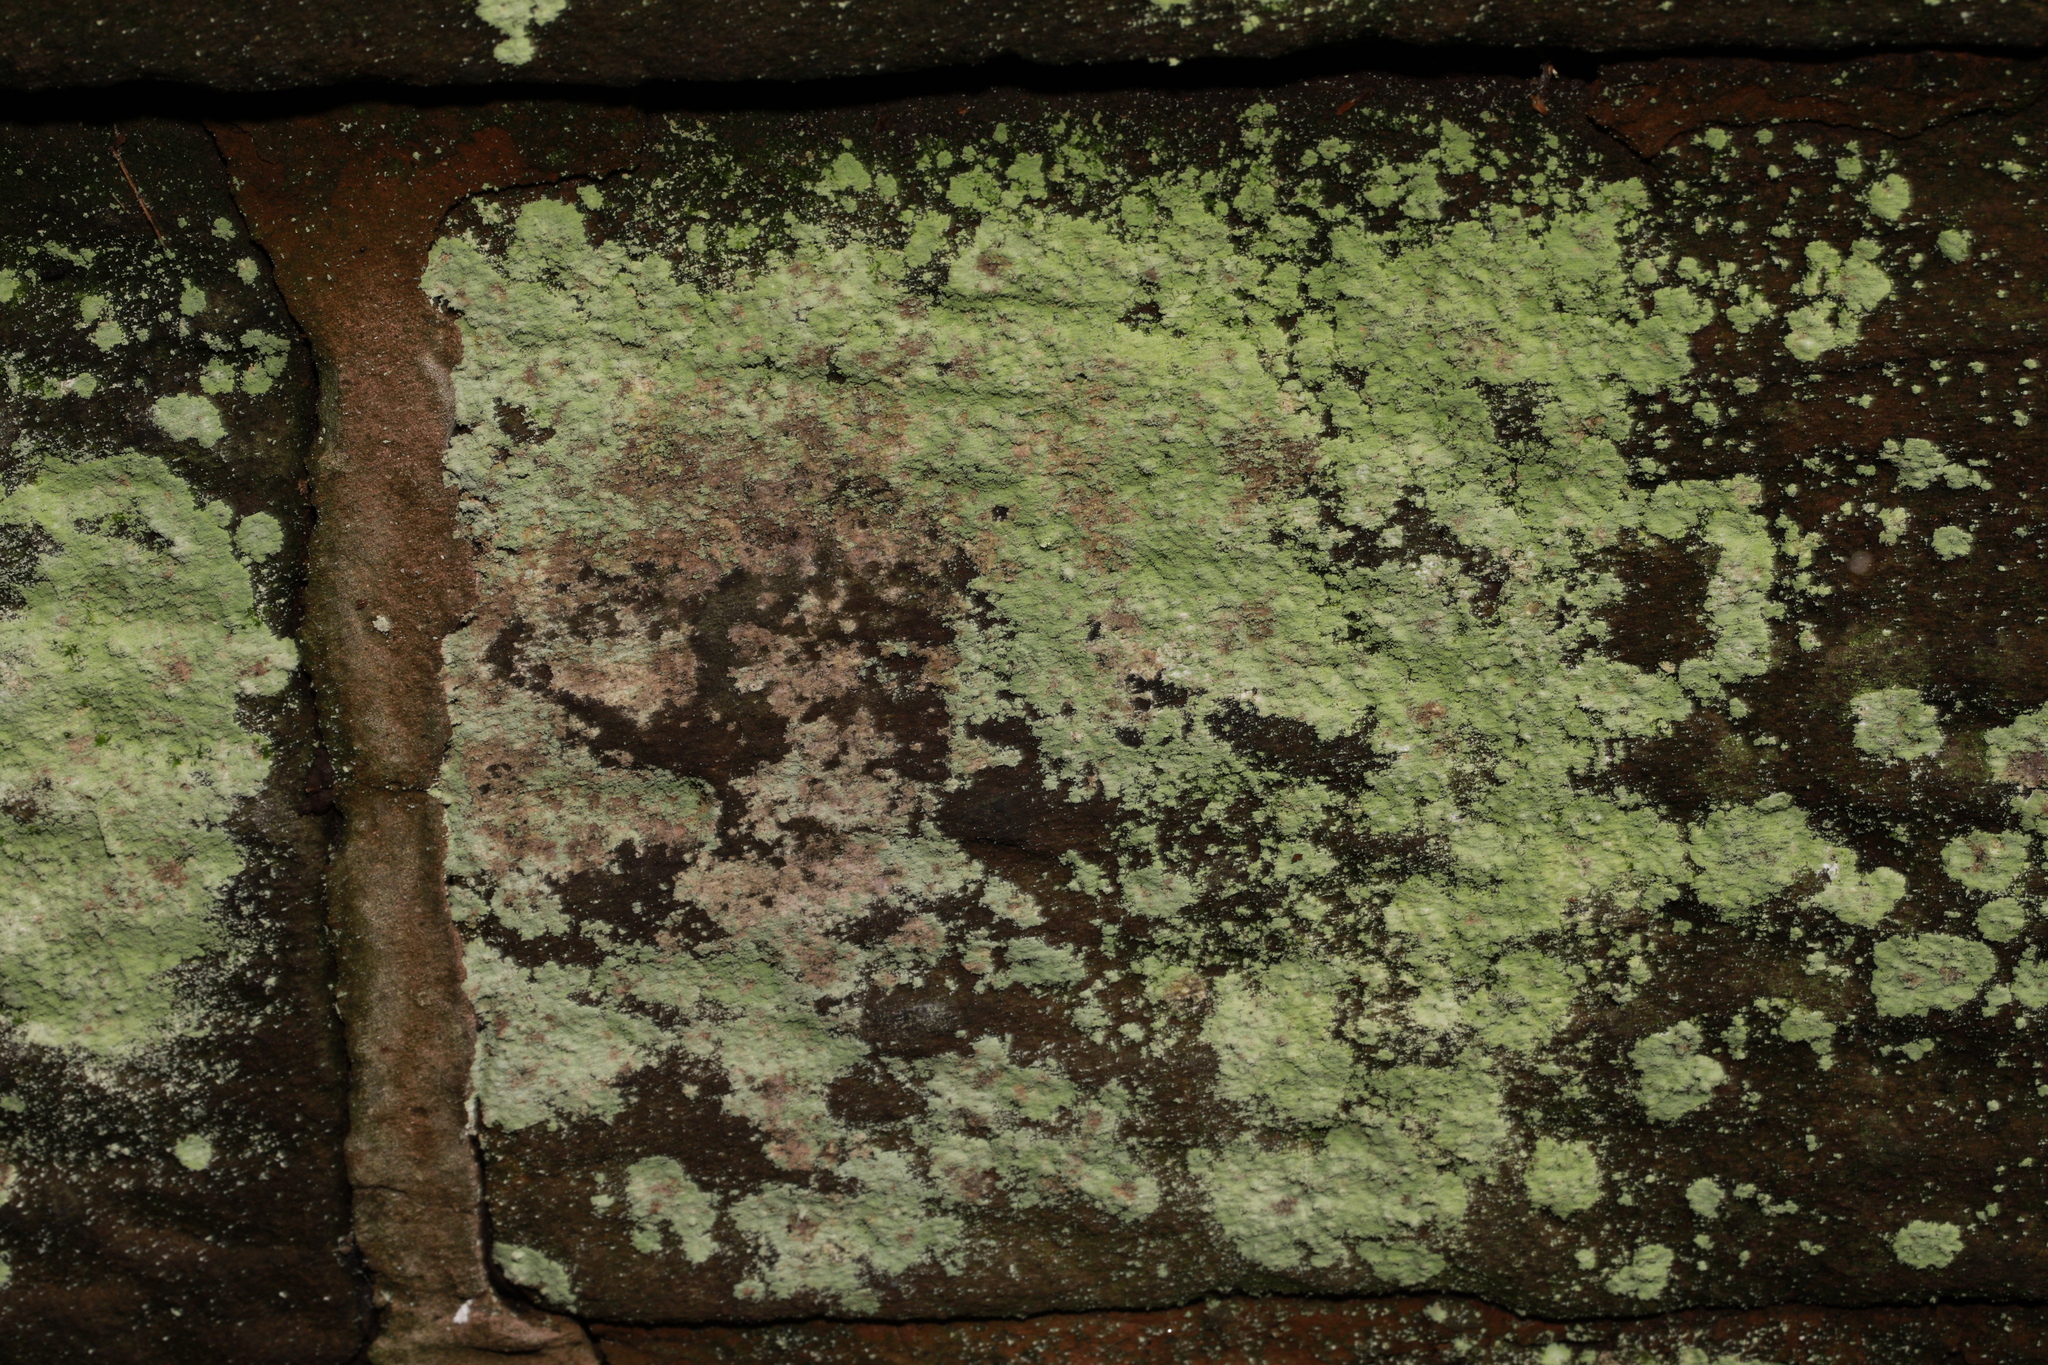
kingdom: Fungi
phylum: Ascomycota
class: Lecanoromycetes
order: Lecanorales
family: Stereocaulaceae
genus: Lepraria
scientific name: Lepraria
